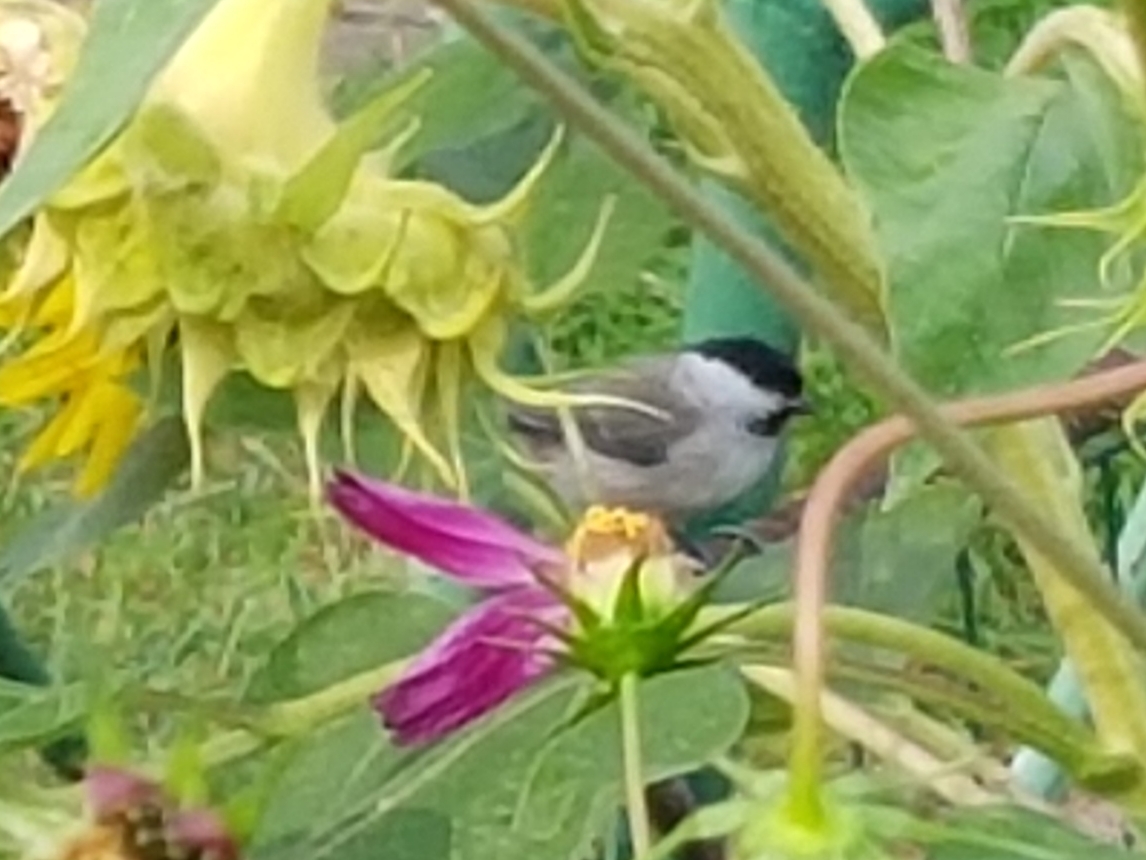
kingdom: Animalia
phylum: Chordata
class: Aves
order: Passeriformes
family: Paridae
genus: Poecile
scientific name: Poecile palustris
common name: Marsh tit
